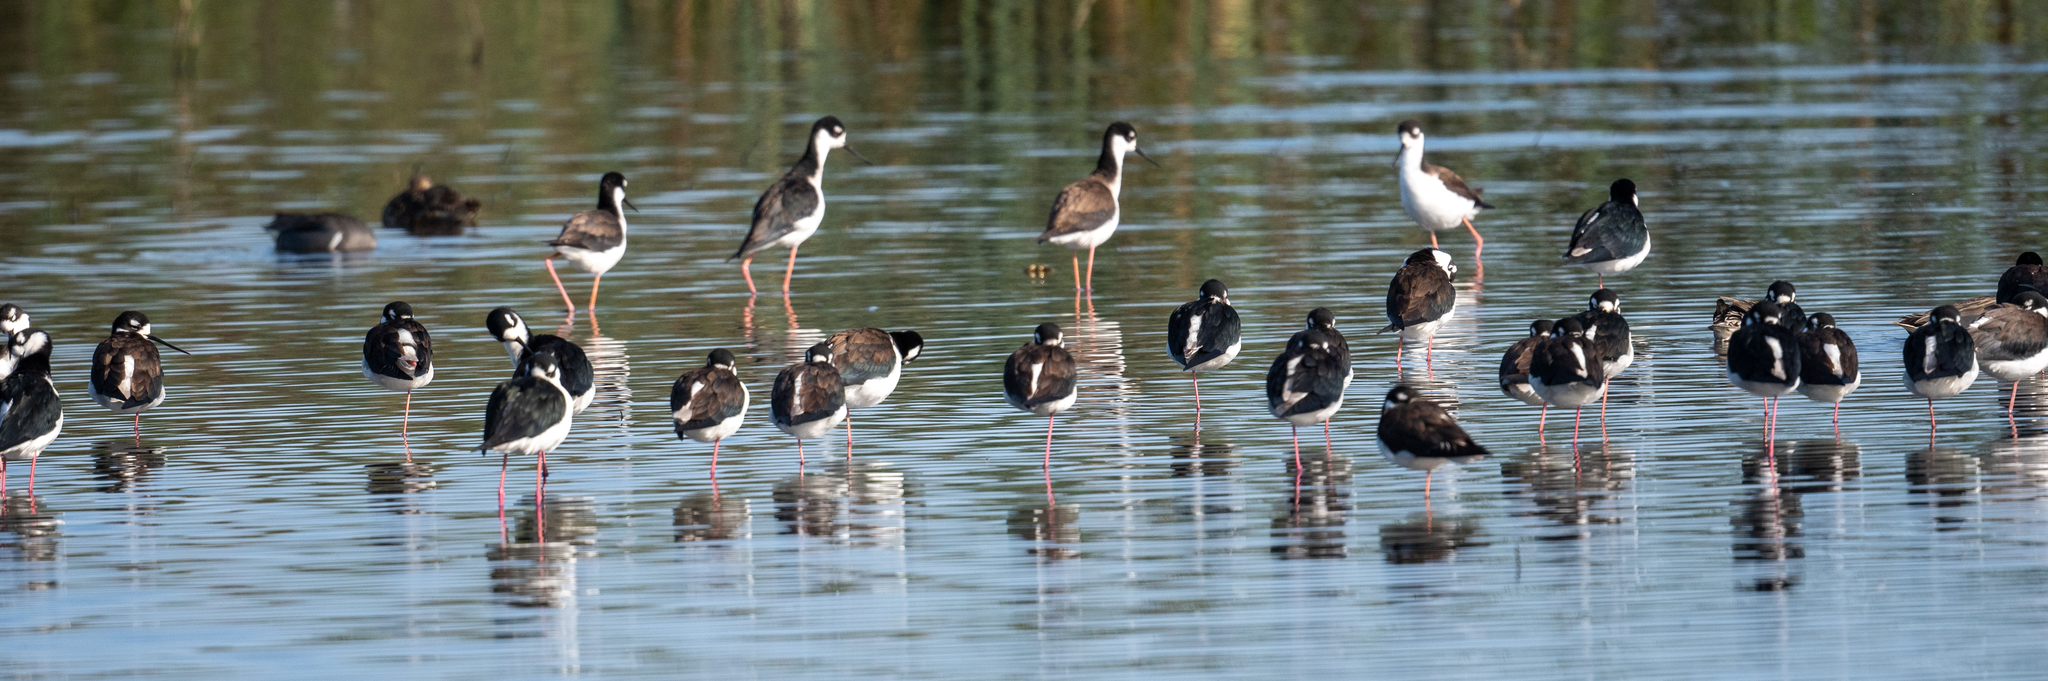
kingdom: Animalia
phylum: Chordata
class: Aves
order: Charadriiformes
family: Recurvirostridae
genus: Himantopus
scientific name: Himantopus mexicanus
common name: Black-necked stilt
